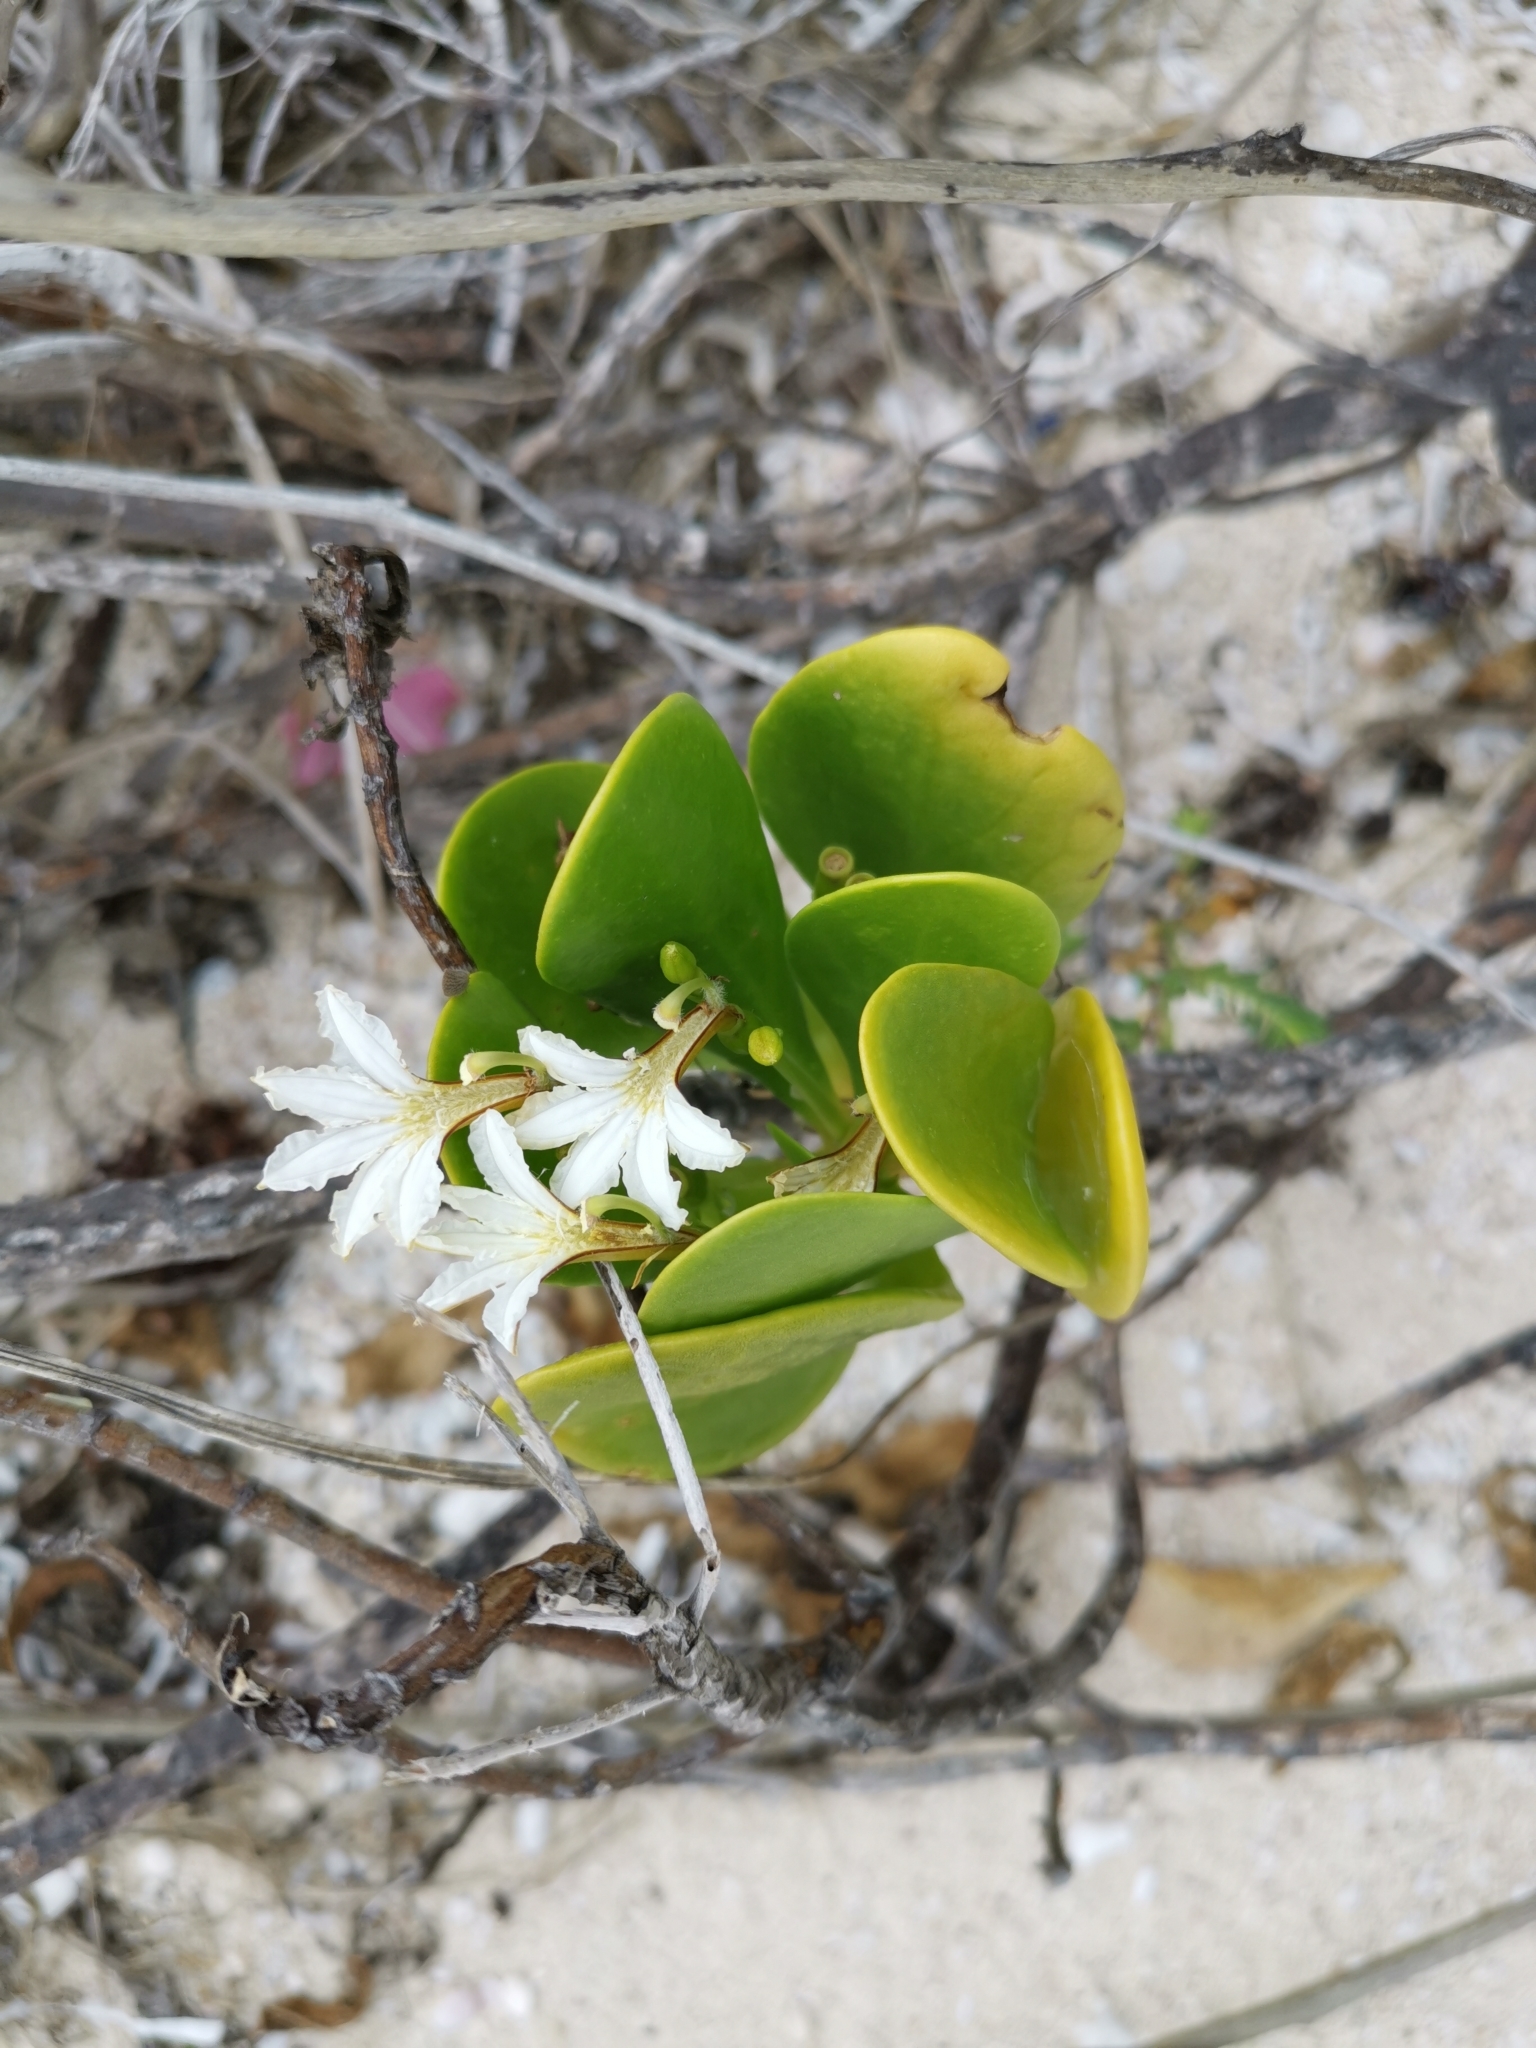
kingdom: Plantae
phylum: Tracheophyta
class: Magnoliopsida
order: Asterales
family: Goodeniaceae
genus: Scaevola
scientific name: Scaevola plumieri
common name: Gull feed
